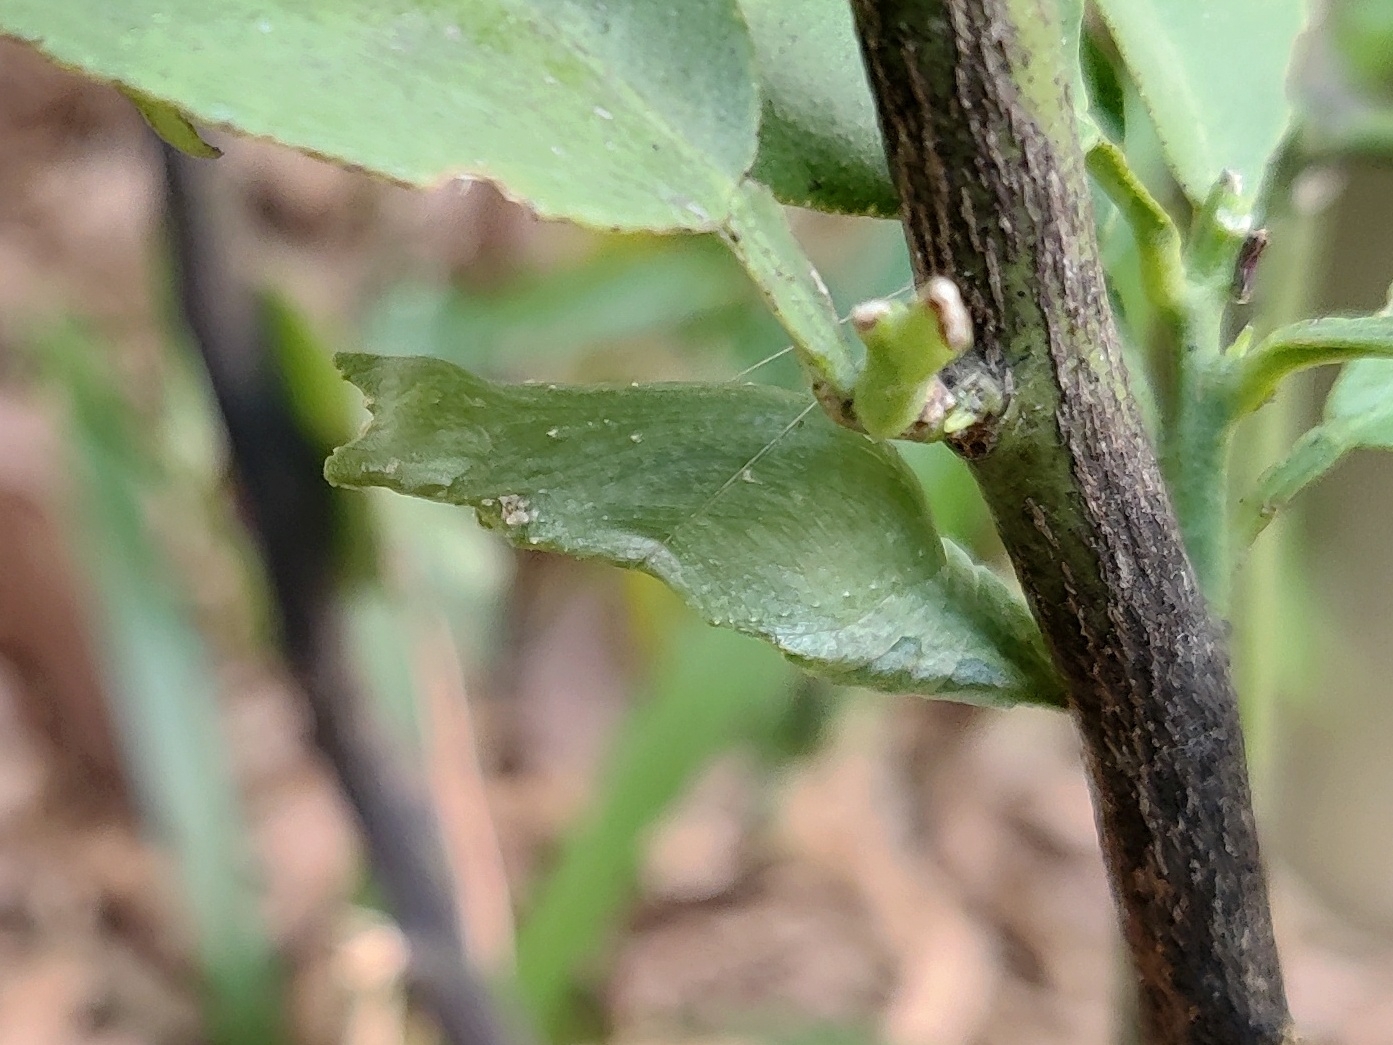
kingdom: Animalia
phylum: Arthropoda
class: Insecta
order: Lepidoptera
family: Papilionidae
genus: Papilio
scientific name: Papilio polytes
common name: Common mormon
